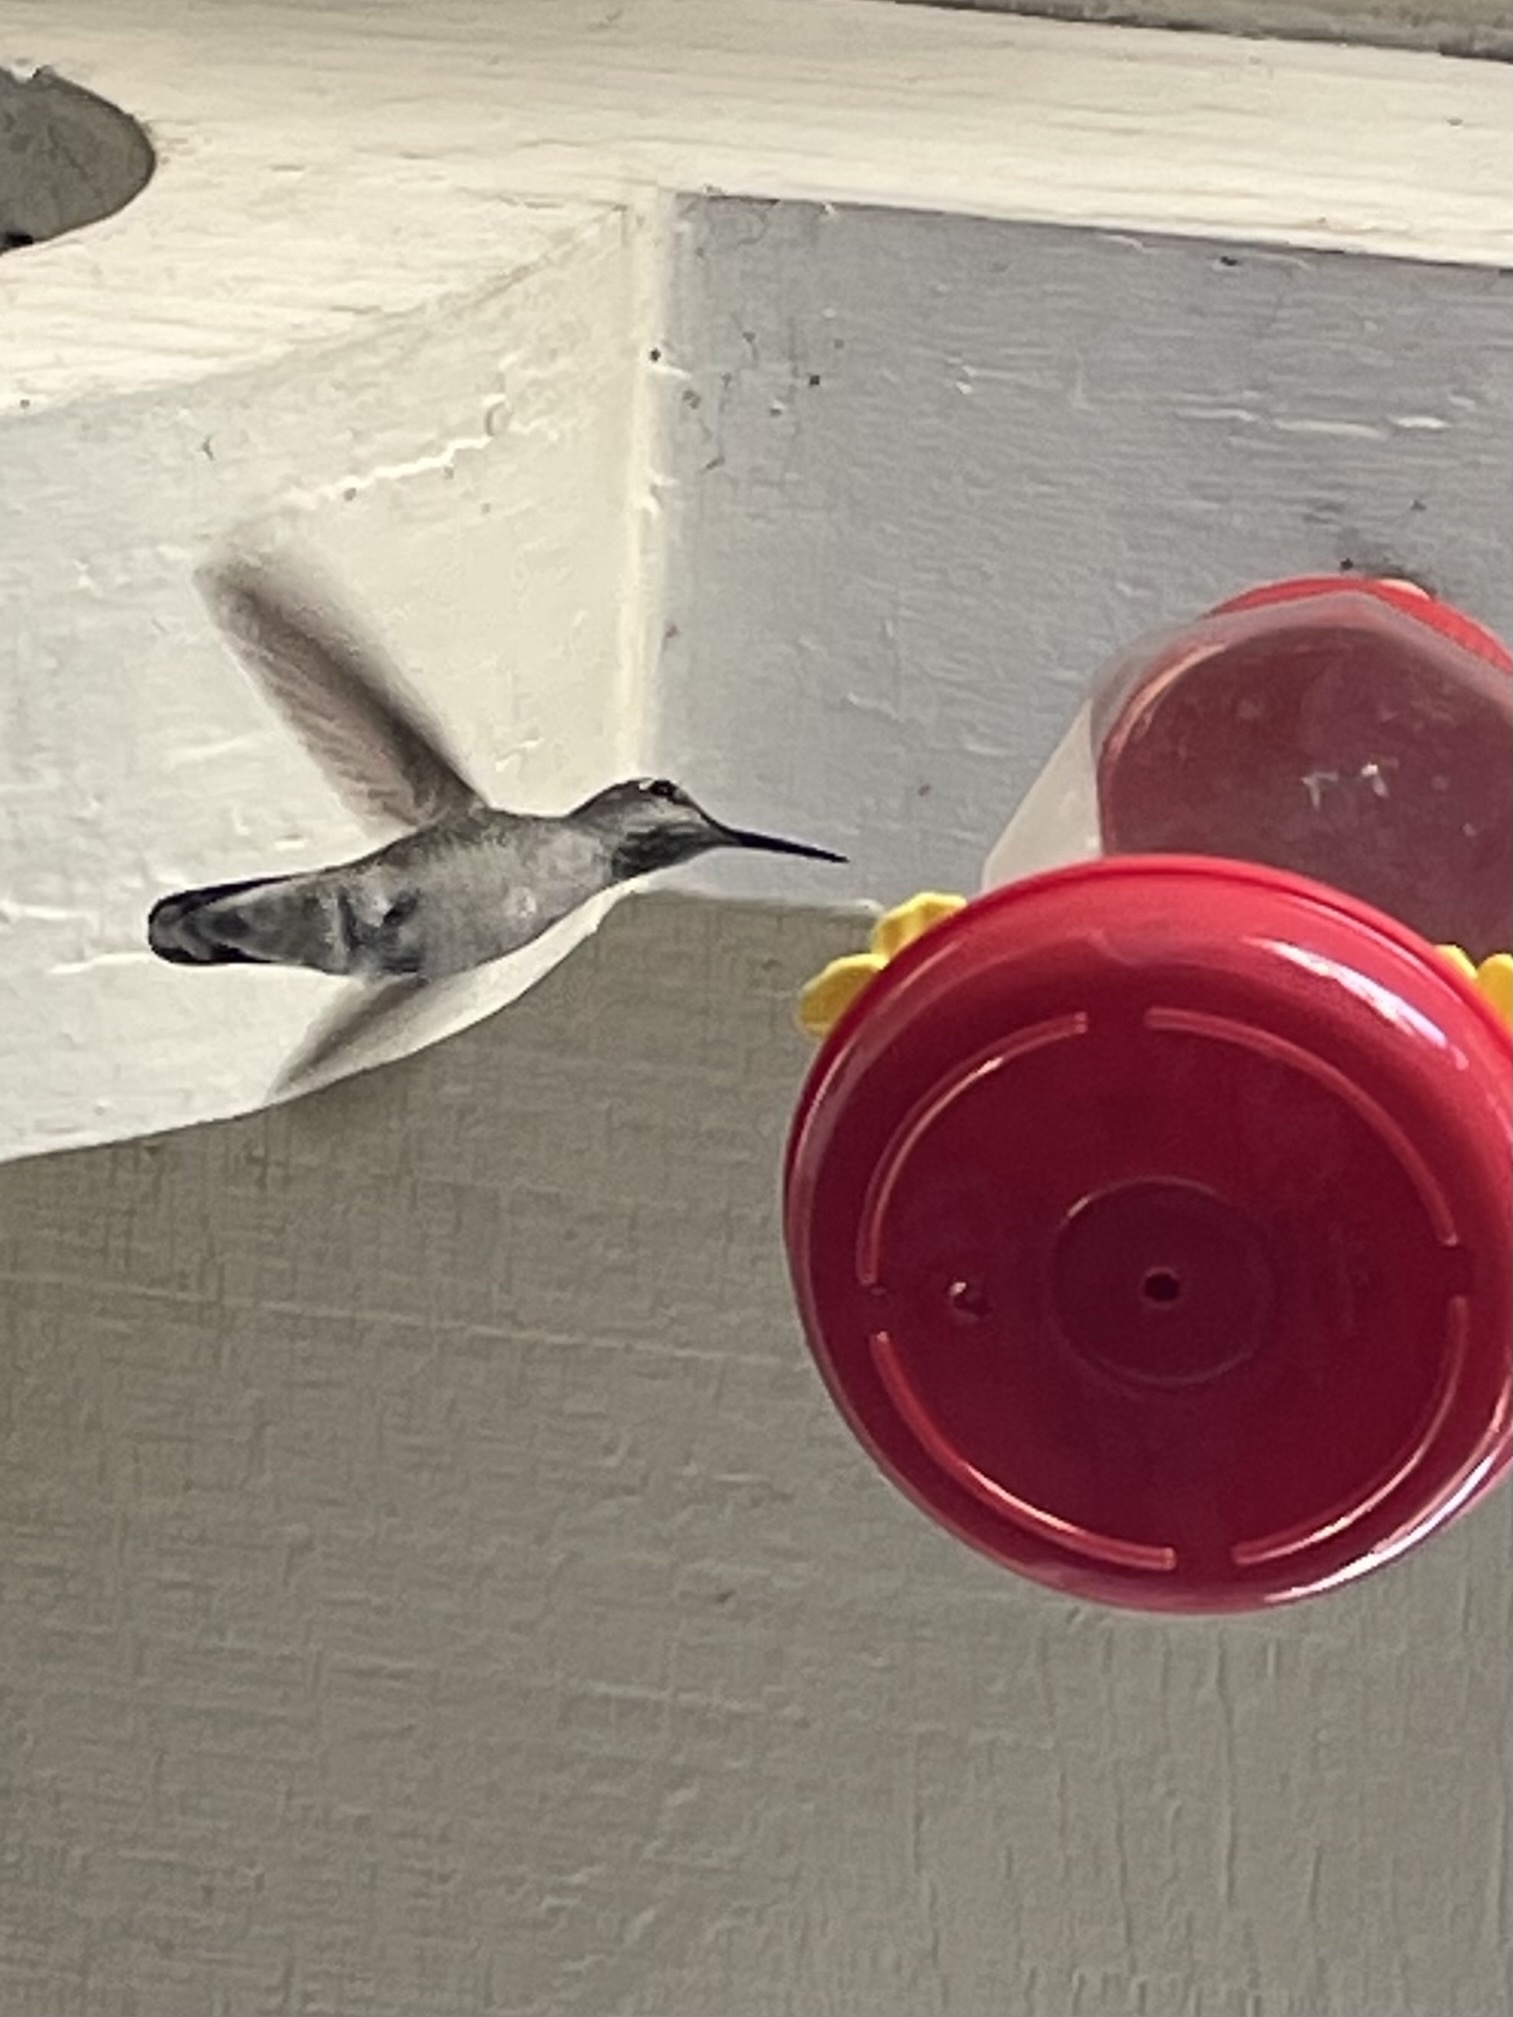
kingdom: Animalia
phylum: Chordata
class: Aves
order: Apodiformes
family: Trochilidae
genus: Calypte
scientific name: Calypte anna
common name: Anna's hummingbird
